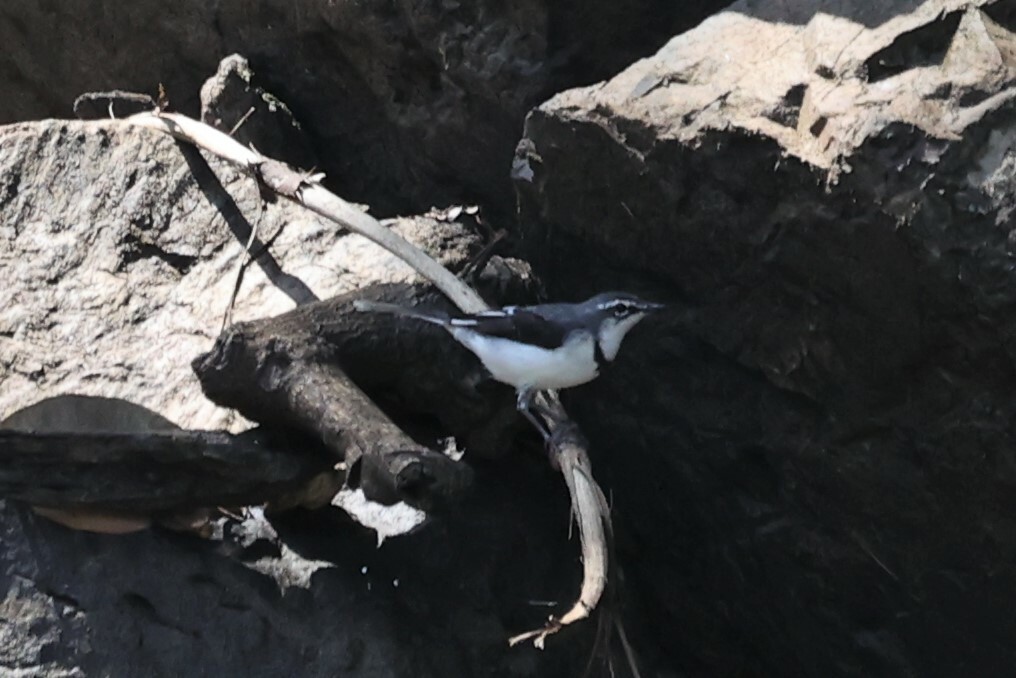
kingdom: Animalia
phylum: Chordata
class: Aves
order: Passeriformes
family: Motacillidae
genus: Motacilla
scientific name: Motacilla clara
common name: Mountain wagtail
